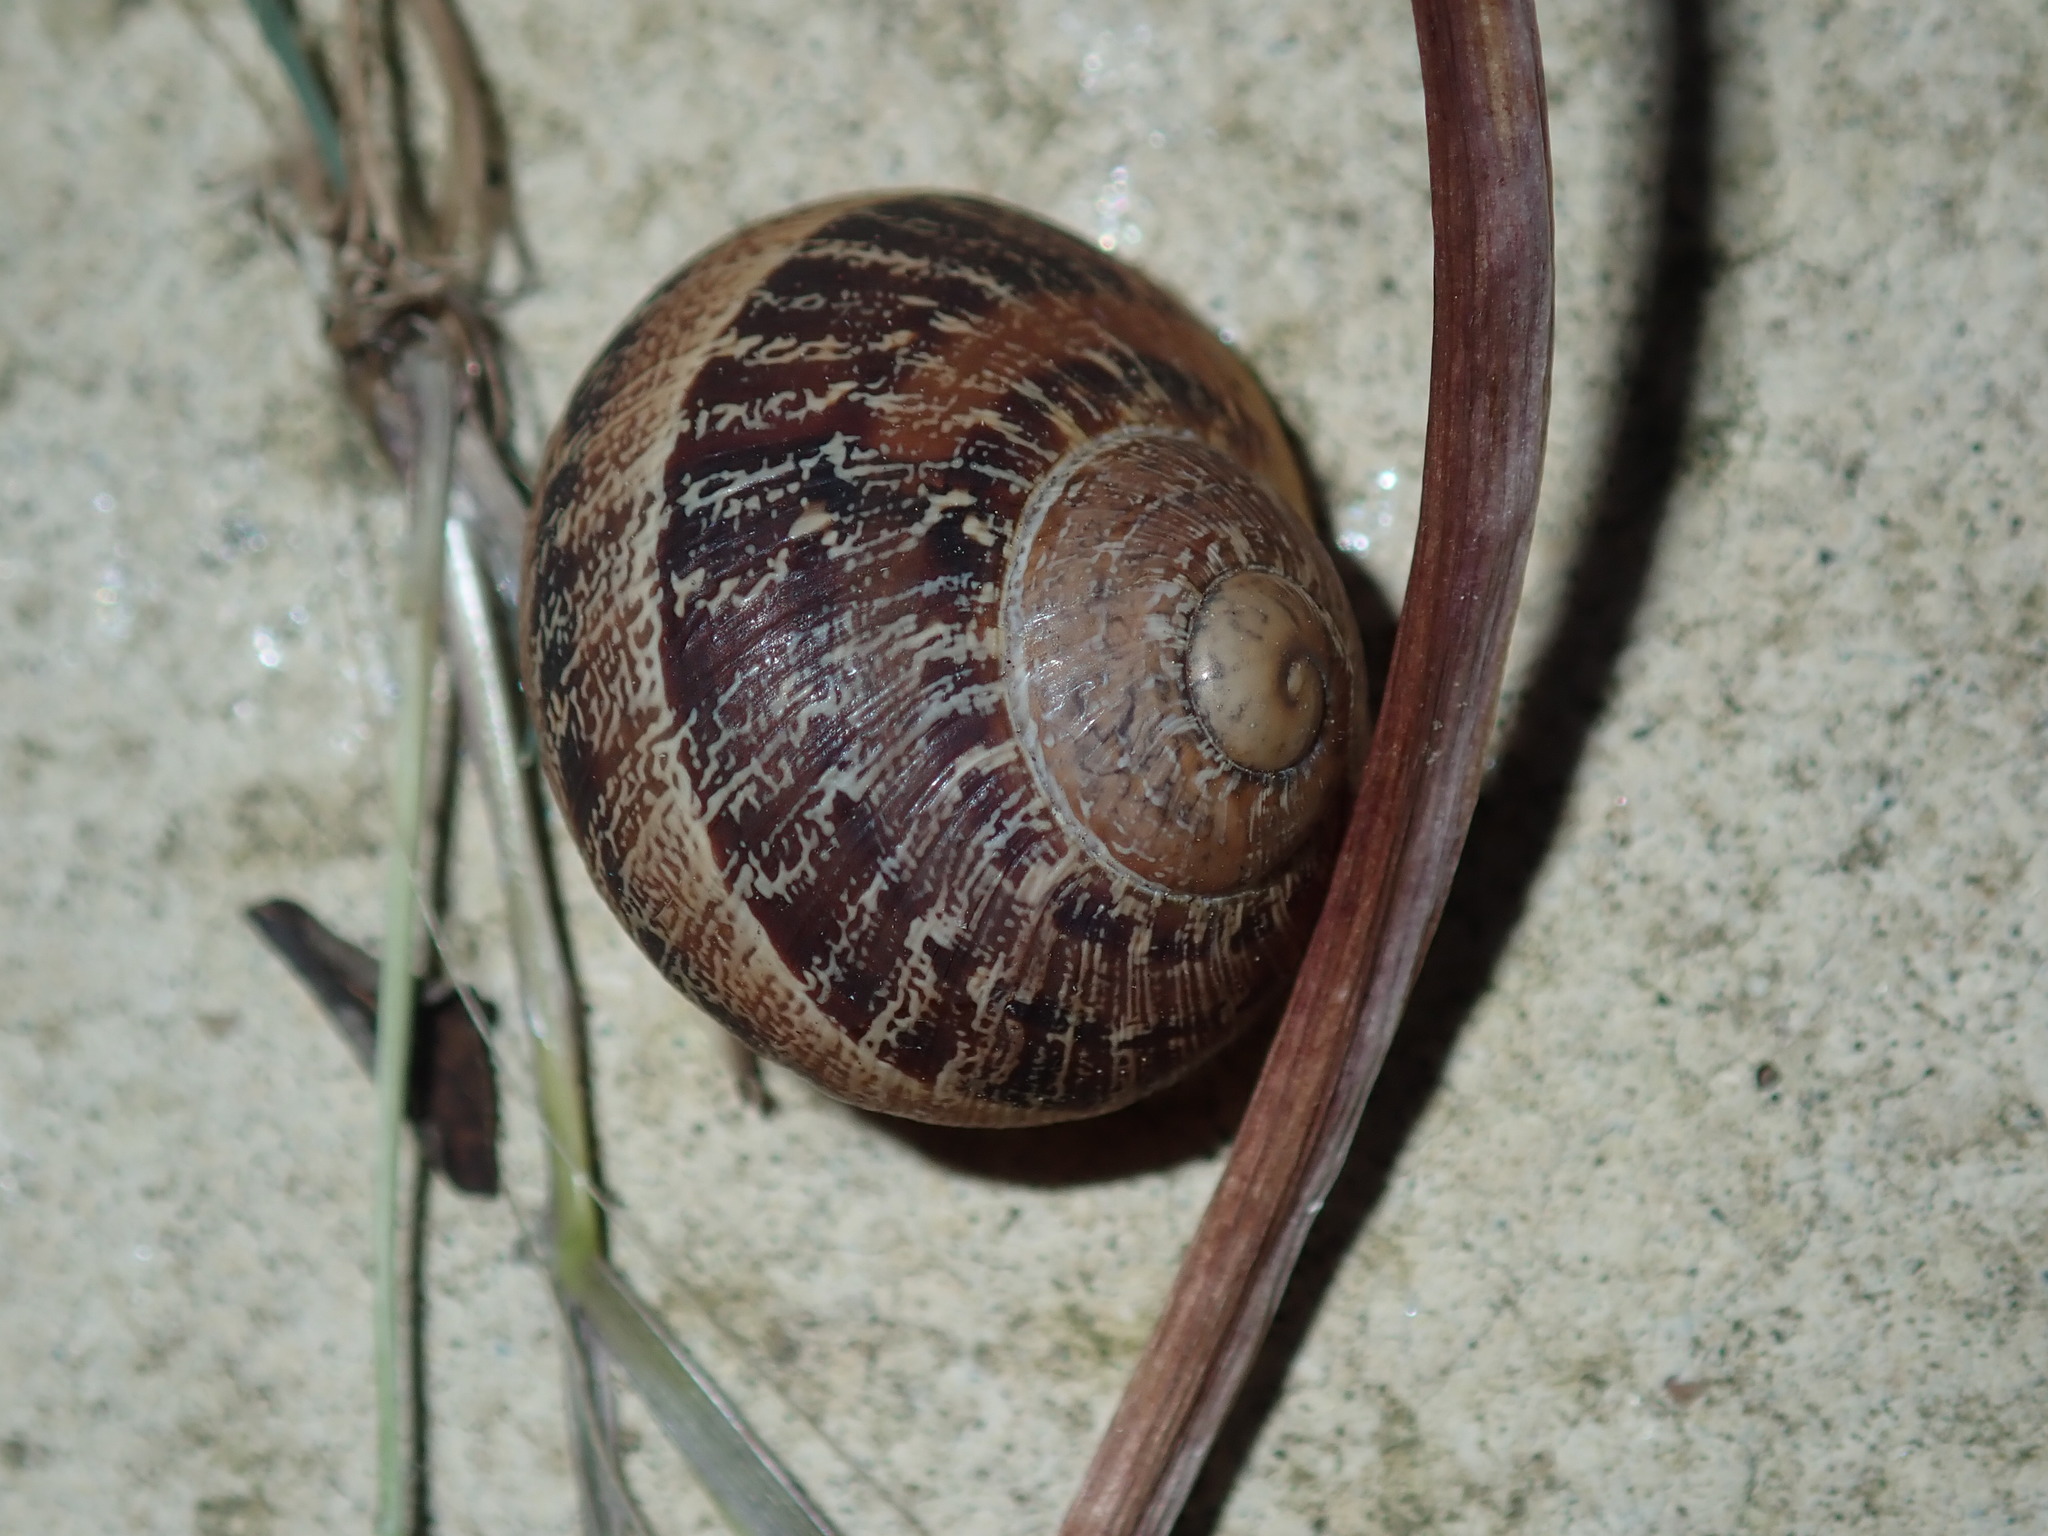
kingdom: Animalia
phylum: Mollusca
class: Gastropoda
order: Stylommatophora
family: Helicidae
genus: Cornu
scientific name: Cornu aspersum
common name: Brown garden snail
